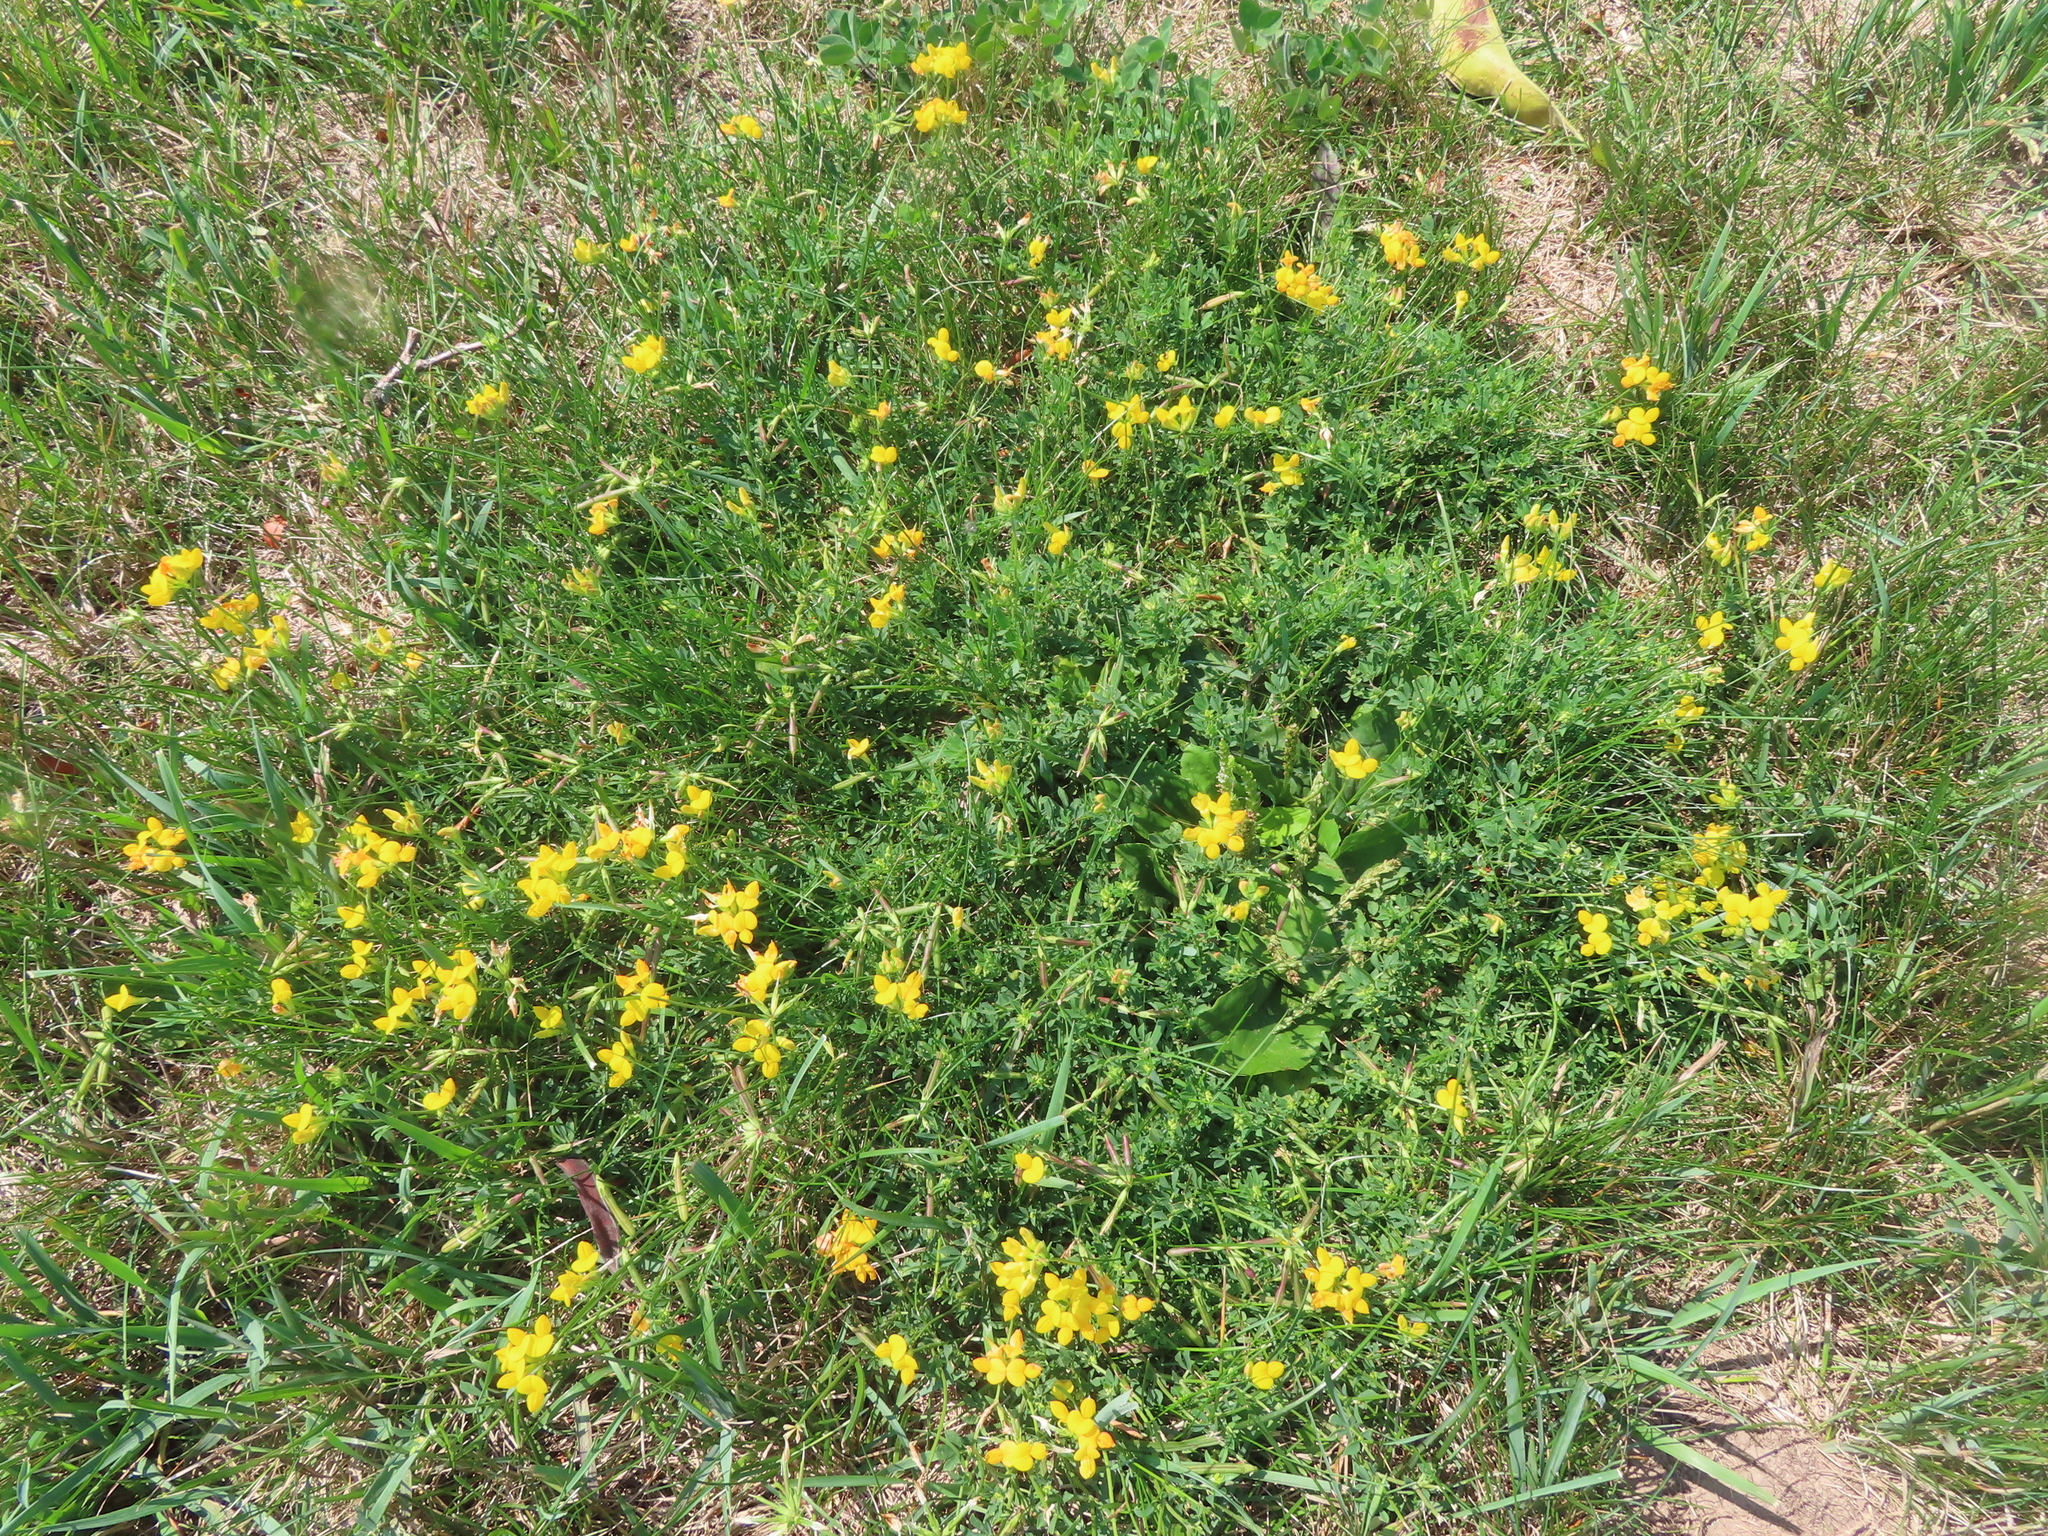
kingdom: Plantae
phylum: Tracheophyta
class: Magnoliopsida
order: Fabales
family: Fabaceae
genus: Lotus
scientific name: Lotus corniculatus
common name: Common bird's-foot-trefoil
